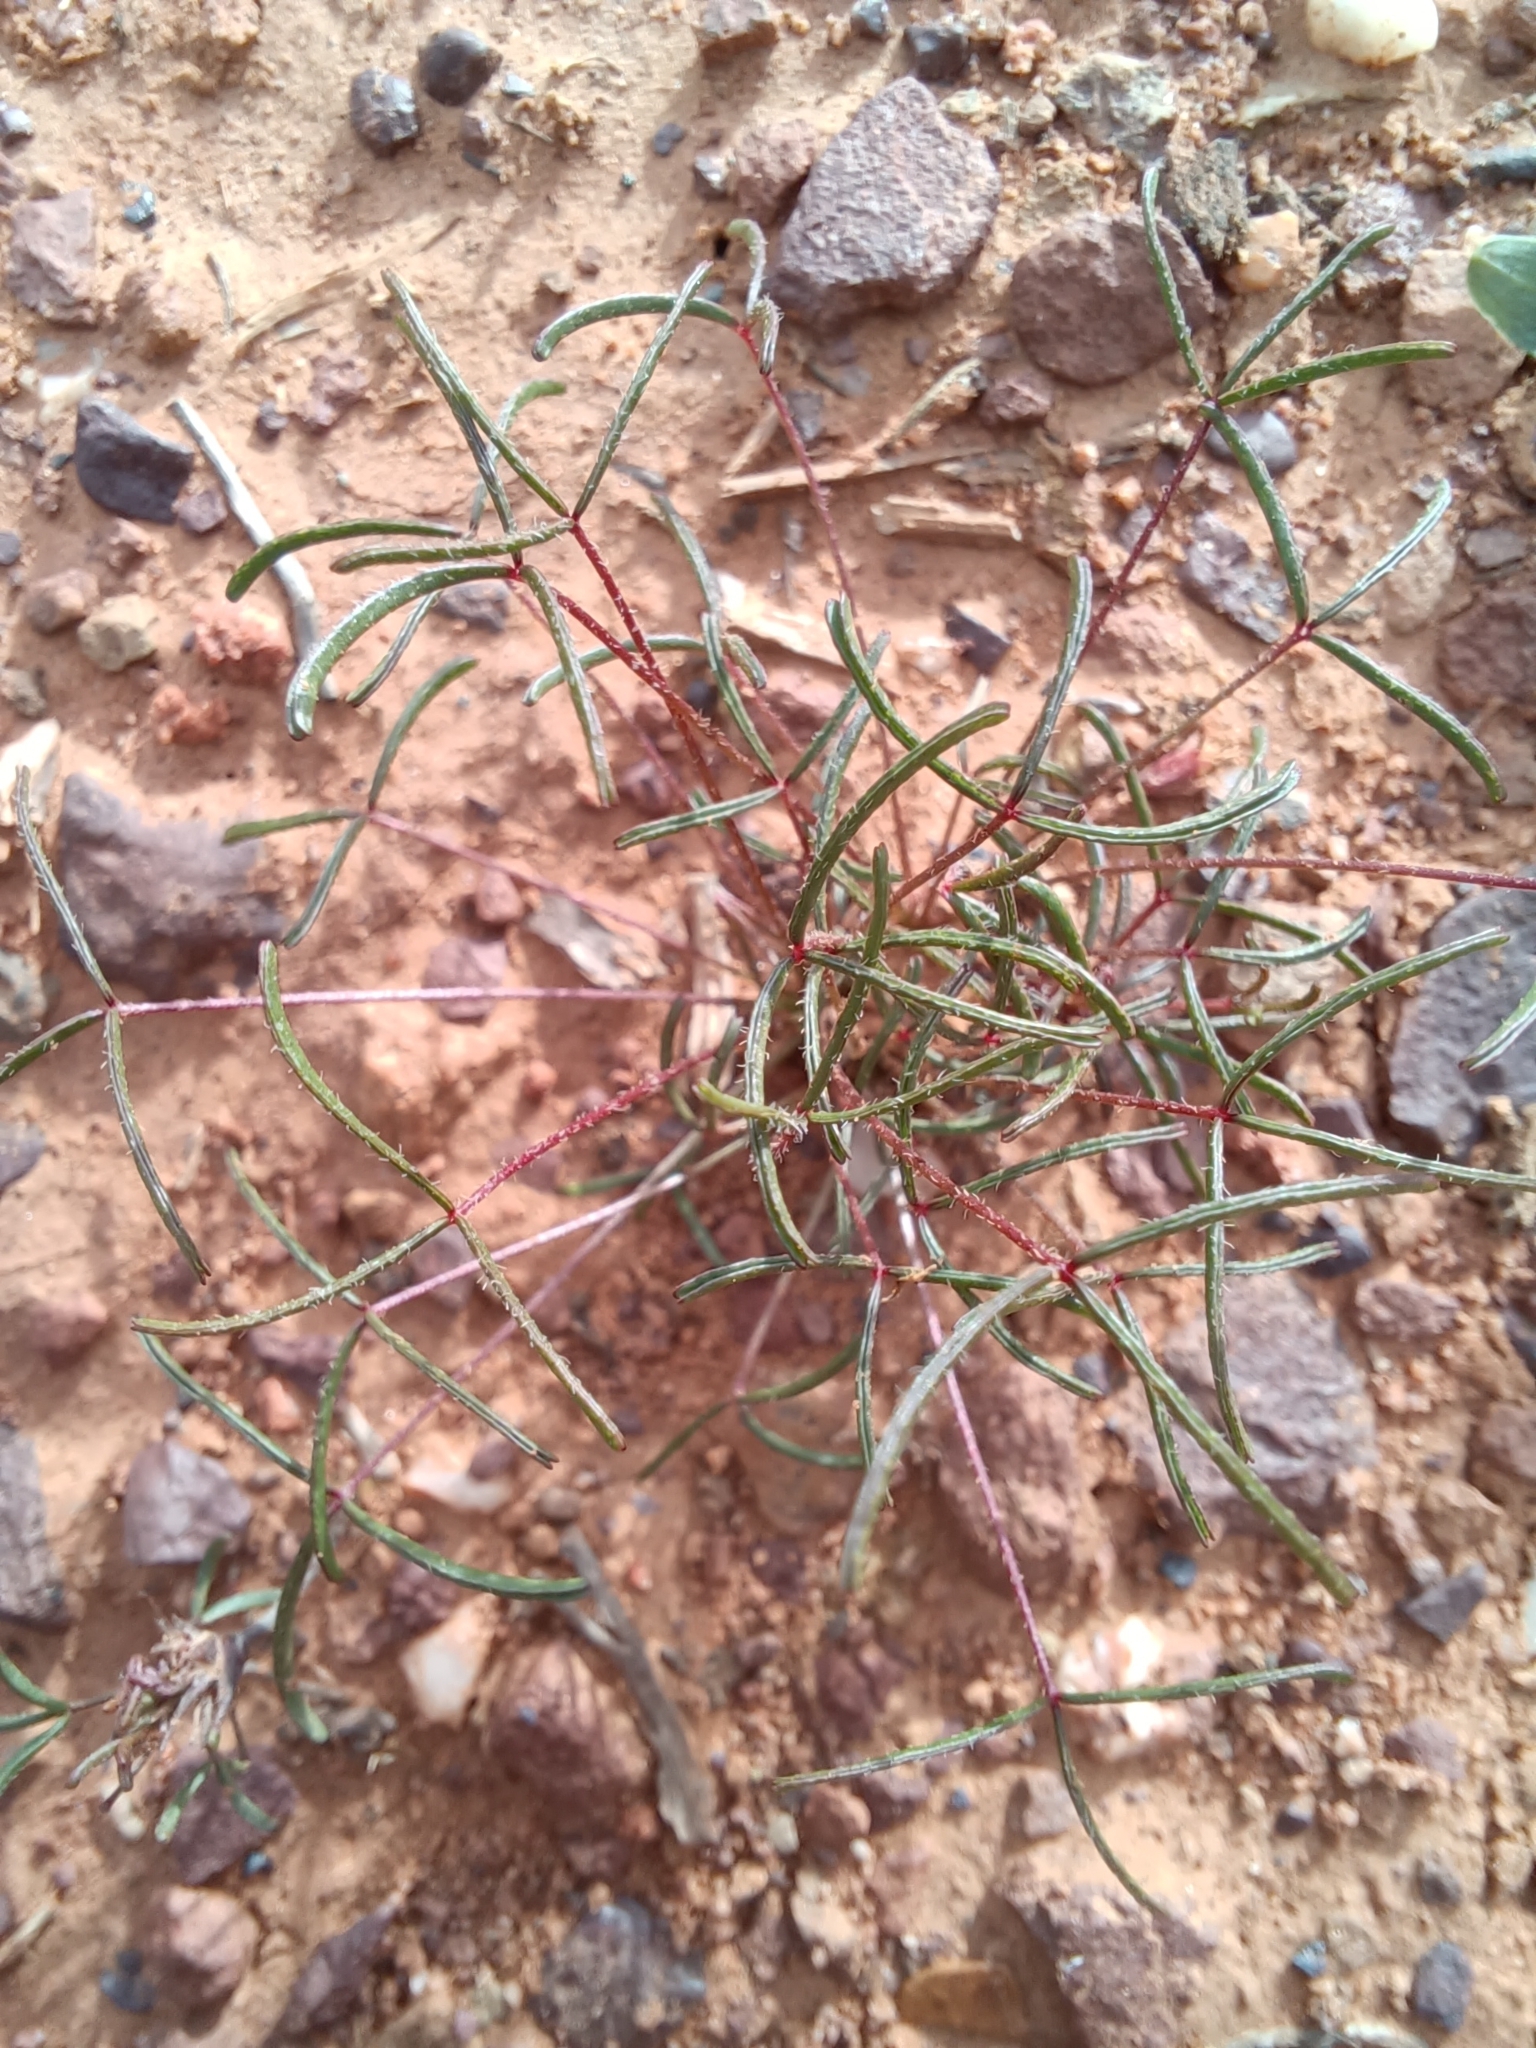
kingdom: Plantae
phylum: Tracheophyta
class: Magnoliopsida
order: Oxalidales
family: Oxalidaceae
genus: Oxalis
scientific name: Oxalis leptogramma
